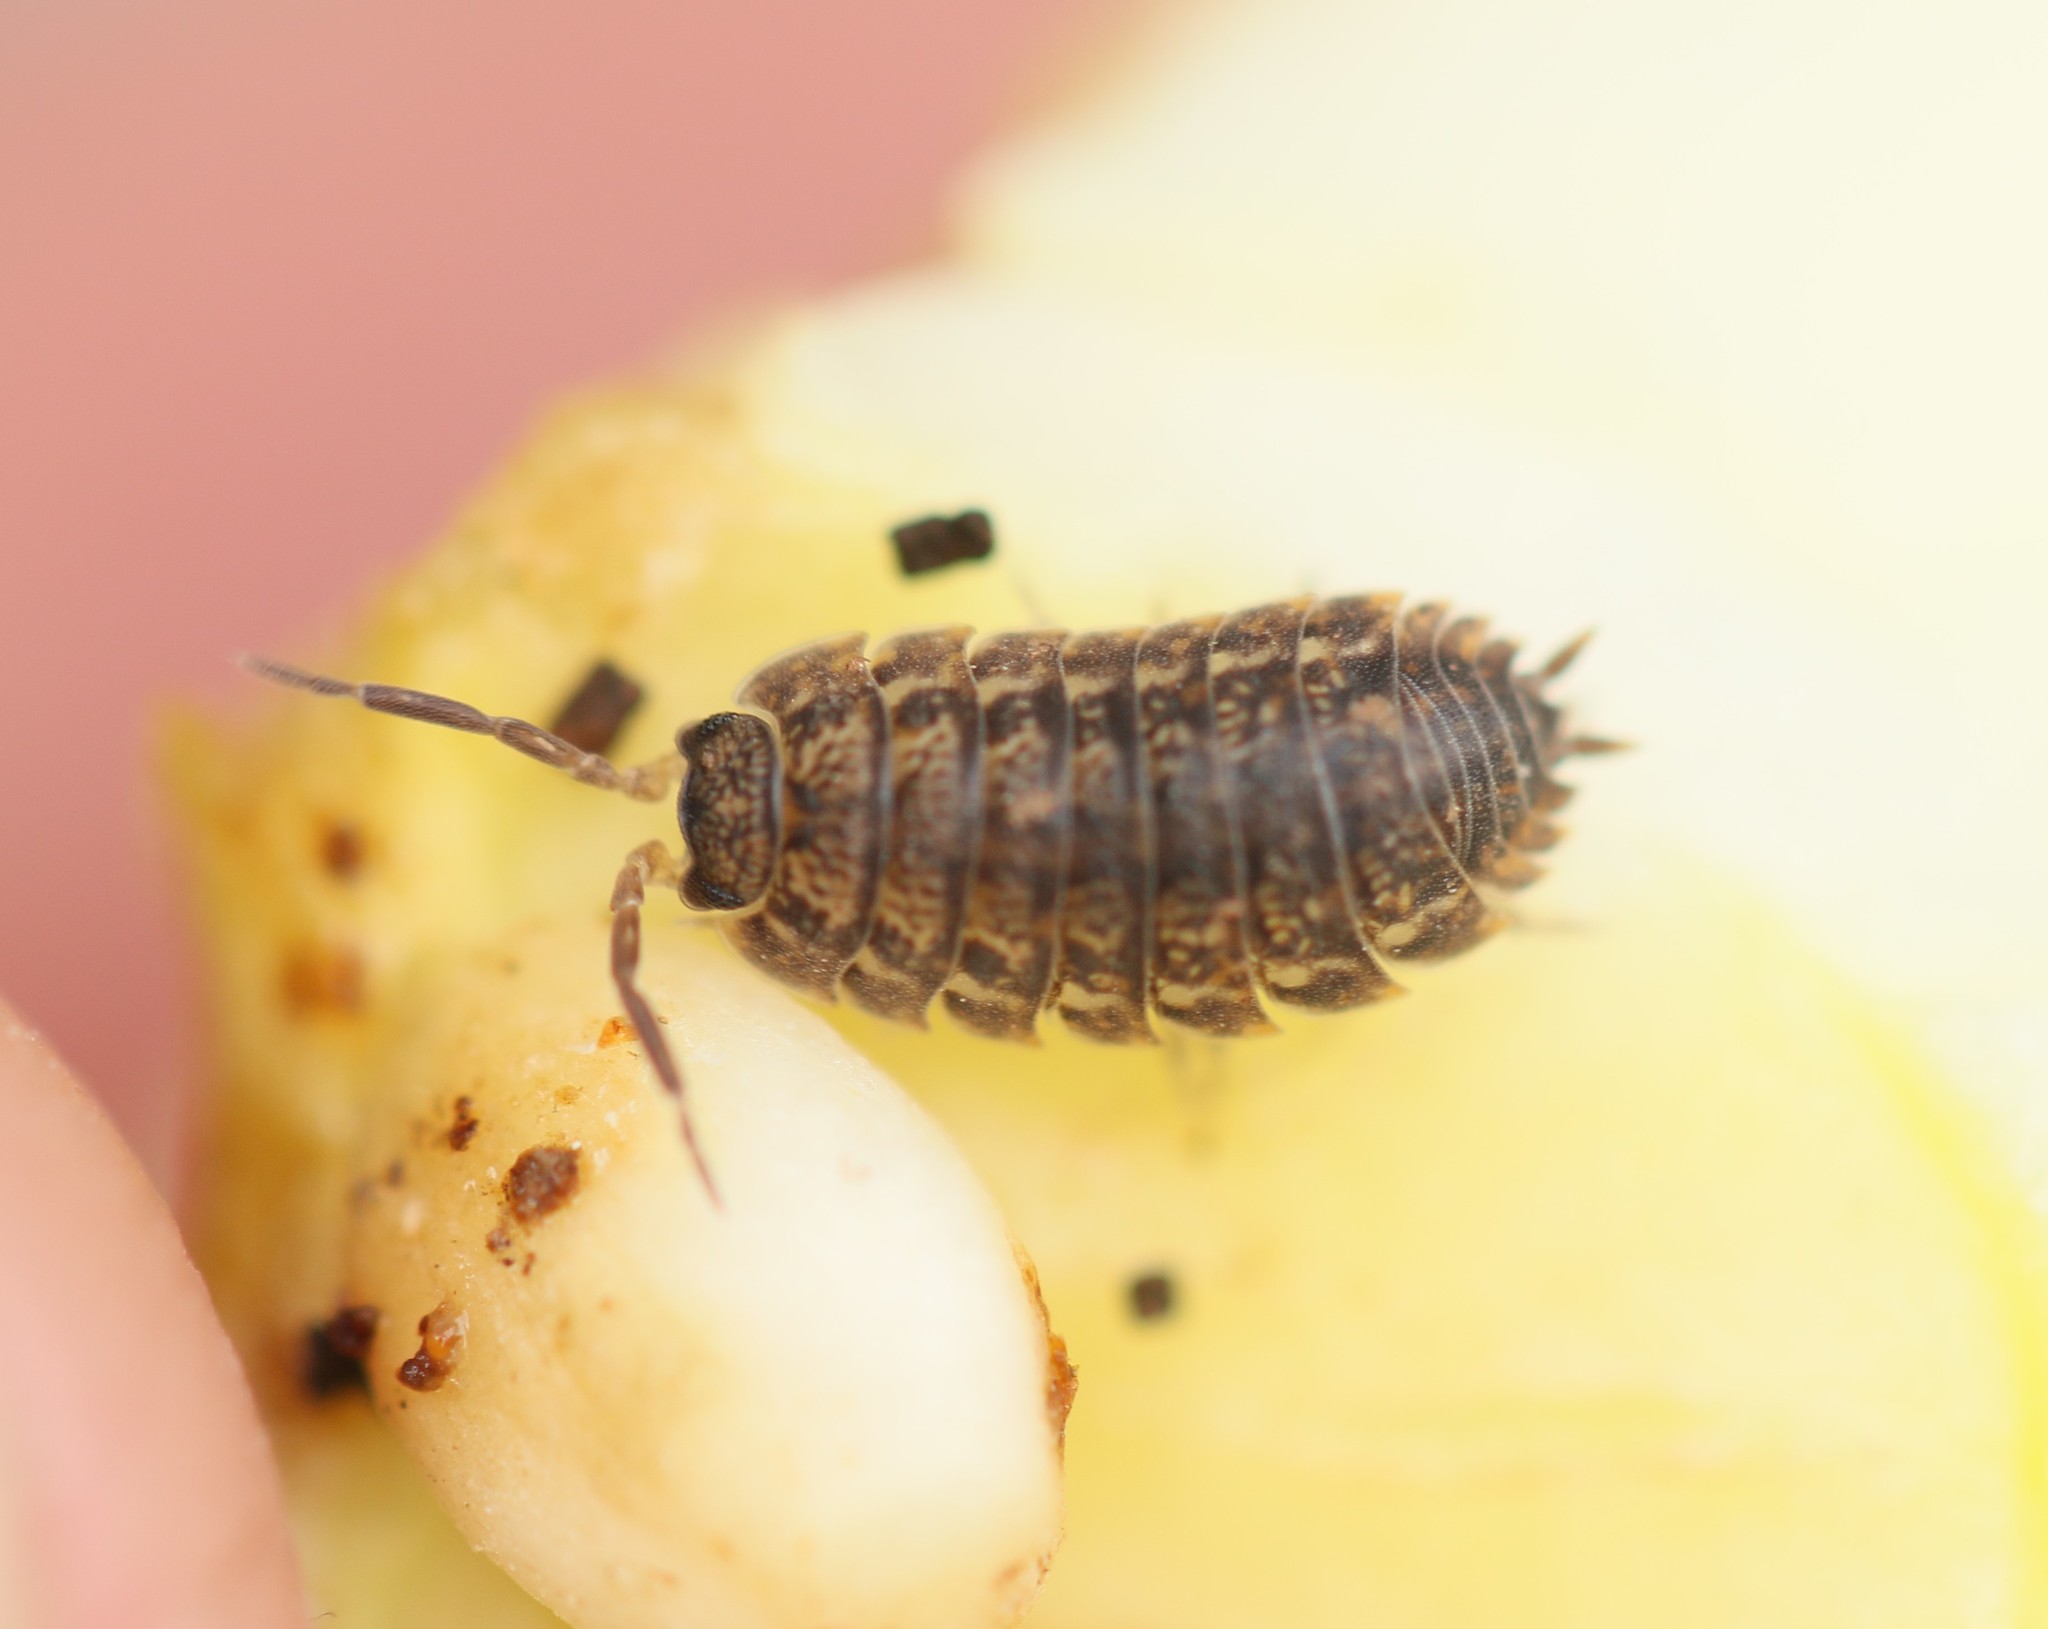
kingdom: Animalia
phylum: Arthropoda
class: Malacostraca
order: Isopoda
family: Trachelipodidae
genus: Trachelipus
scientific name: Trachelipus rathkii
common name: Isopod
